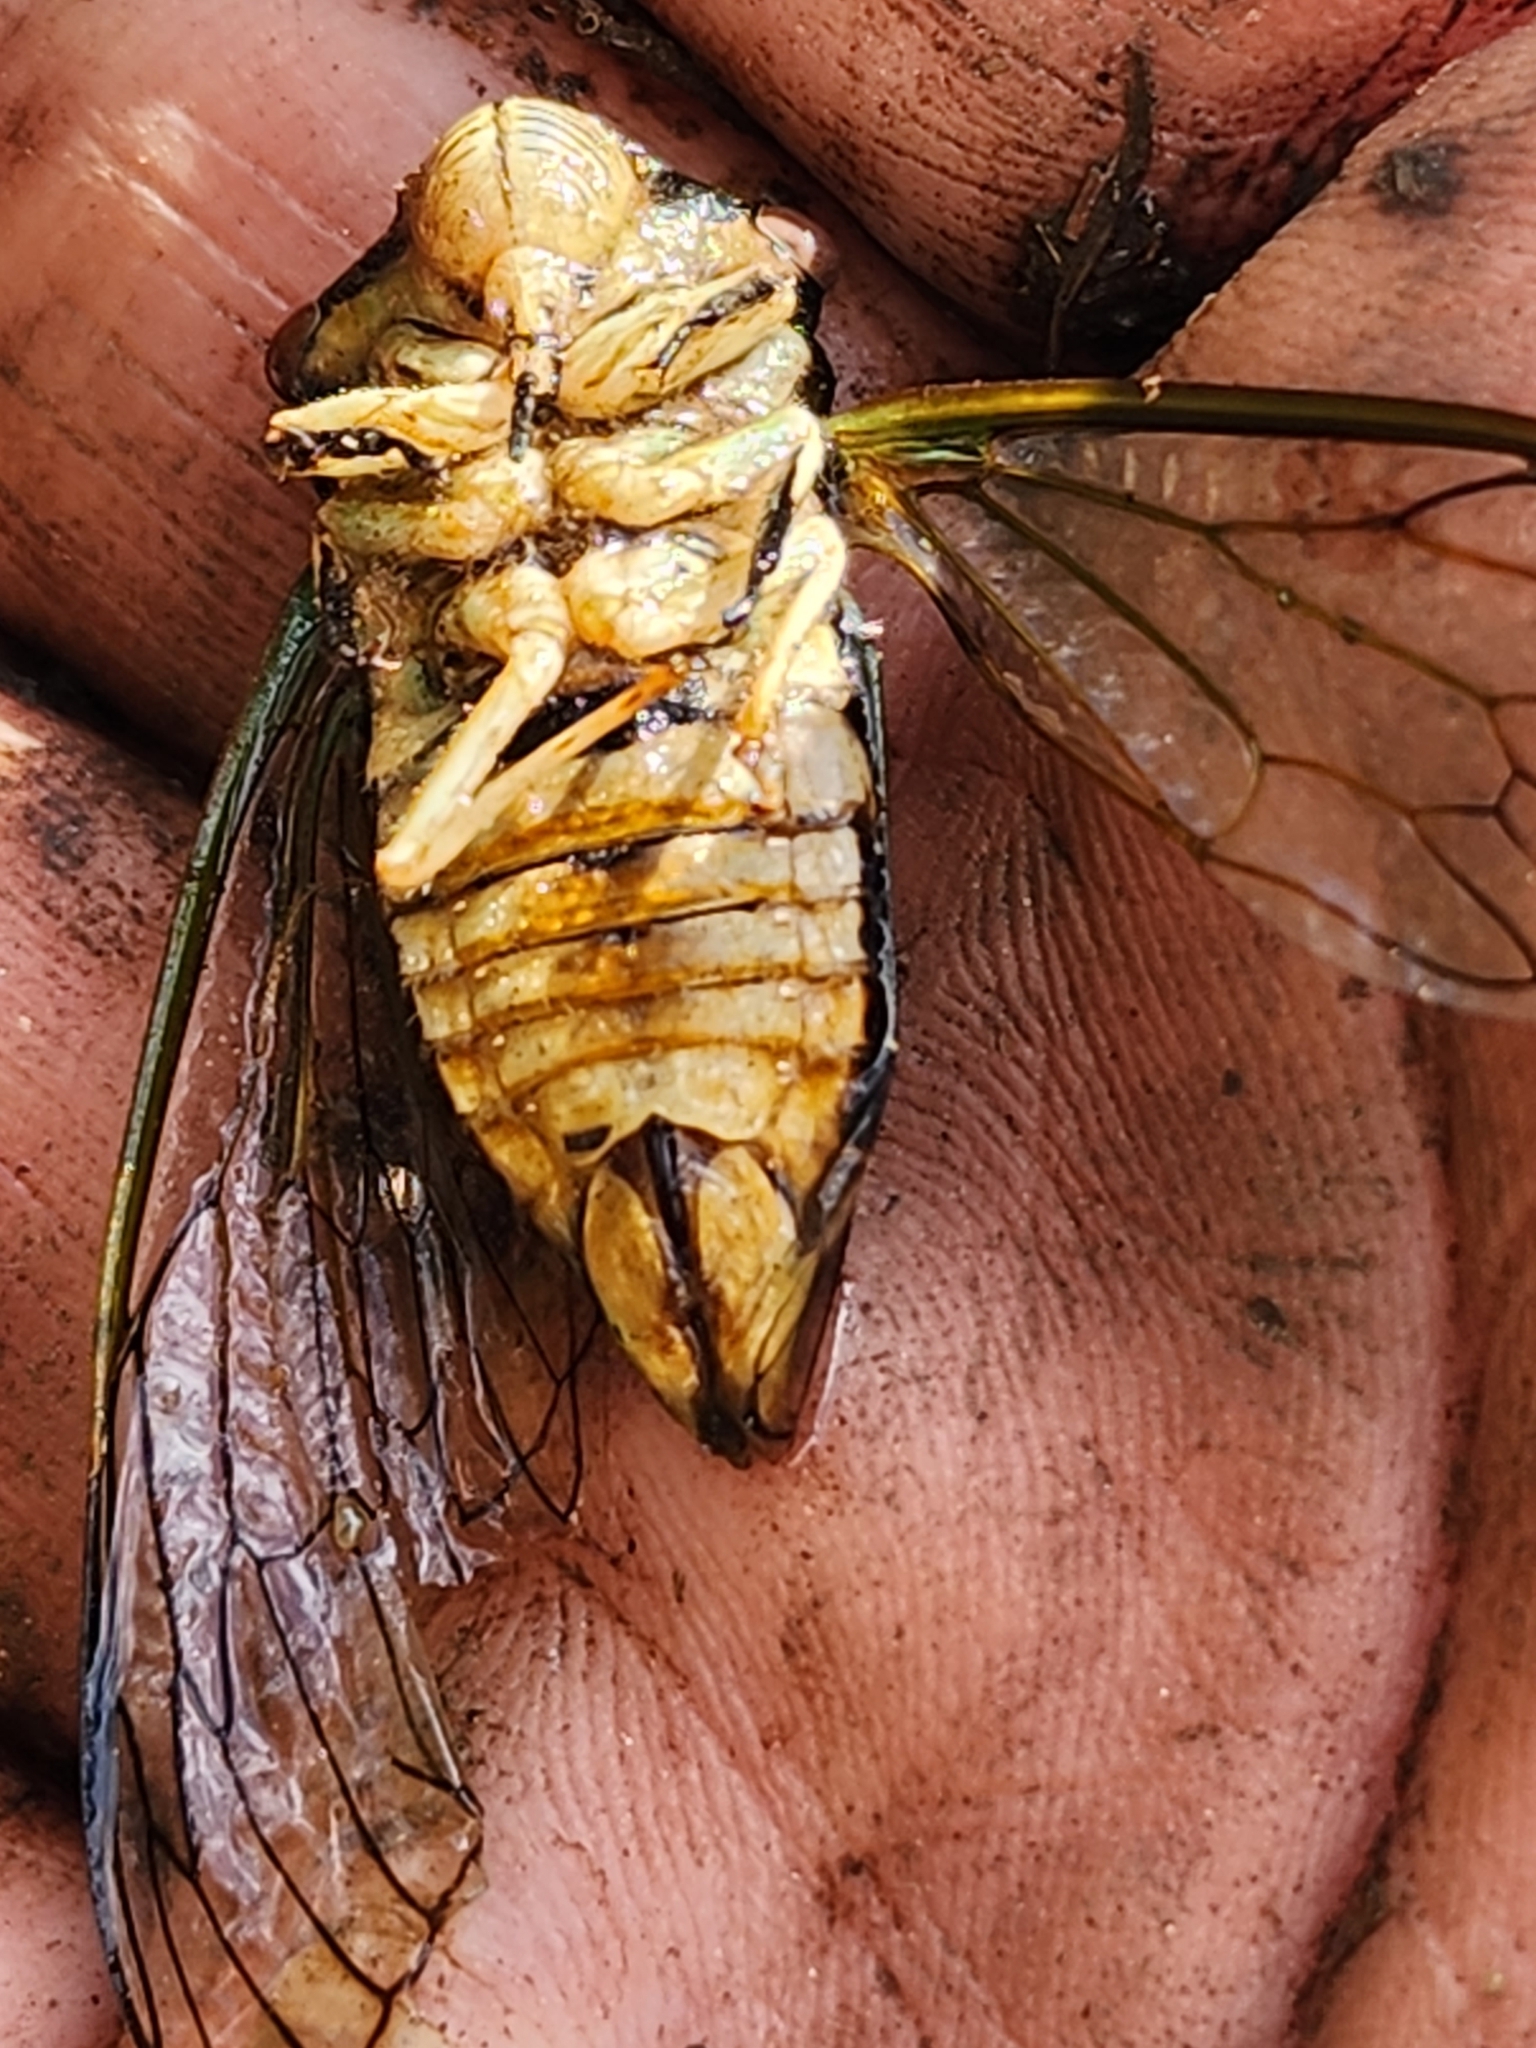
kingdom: Animalia
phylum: Arthropoda
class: Insecta
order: Hemiptera
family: Cicadidae
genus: Psaltoda
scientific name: Psaltoda claripennis
